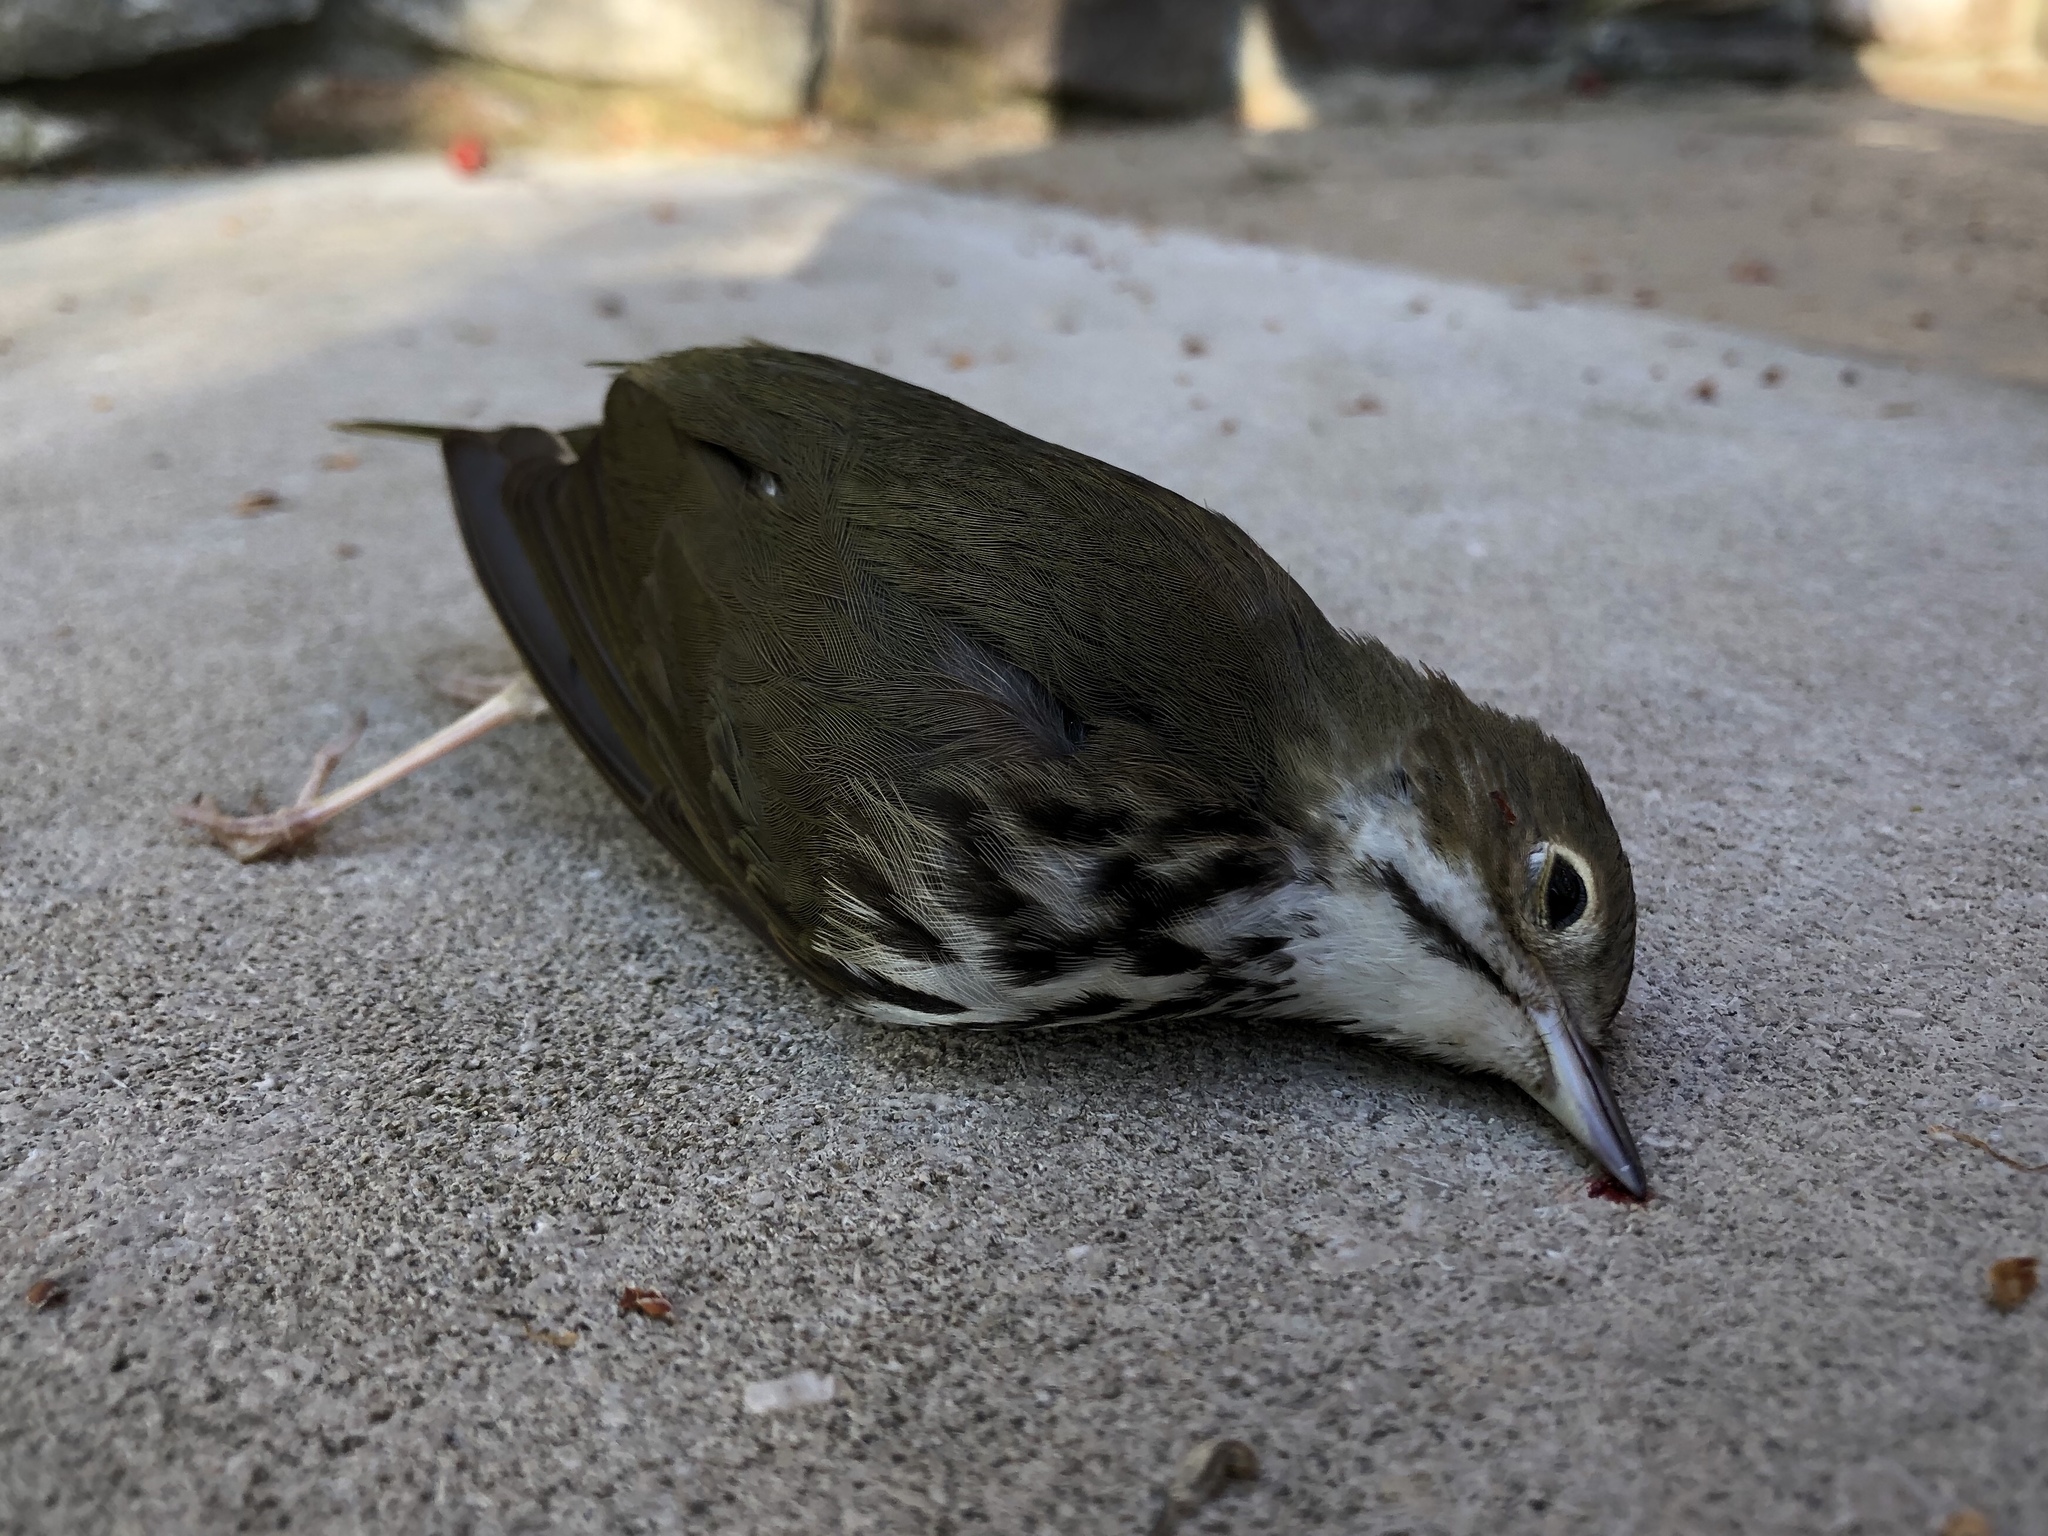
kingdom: Animalia
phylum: Chordata
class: Aves
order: Passeriformes
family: Parulidae
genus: Seiurus
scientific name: Seiurus aurocapilla
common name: Ovenbird
